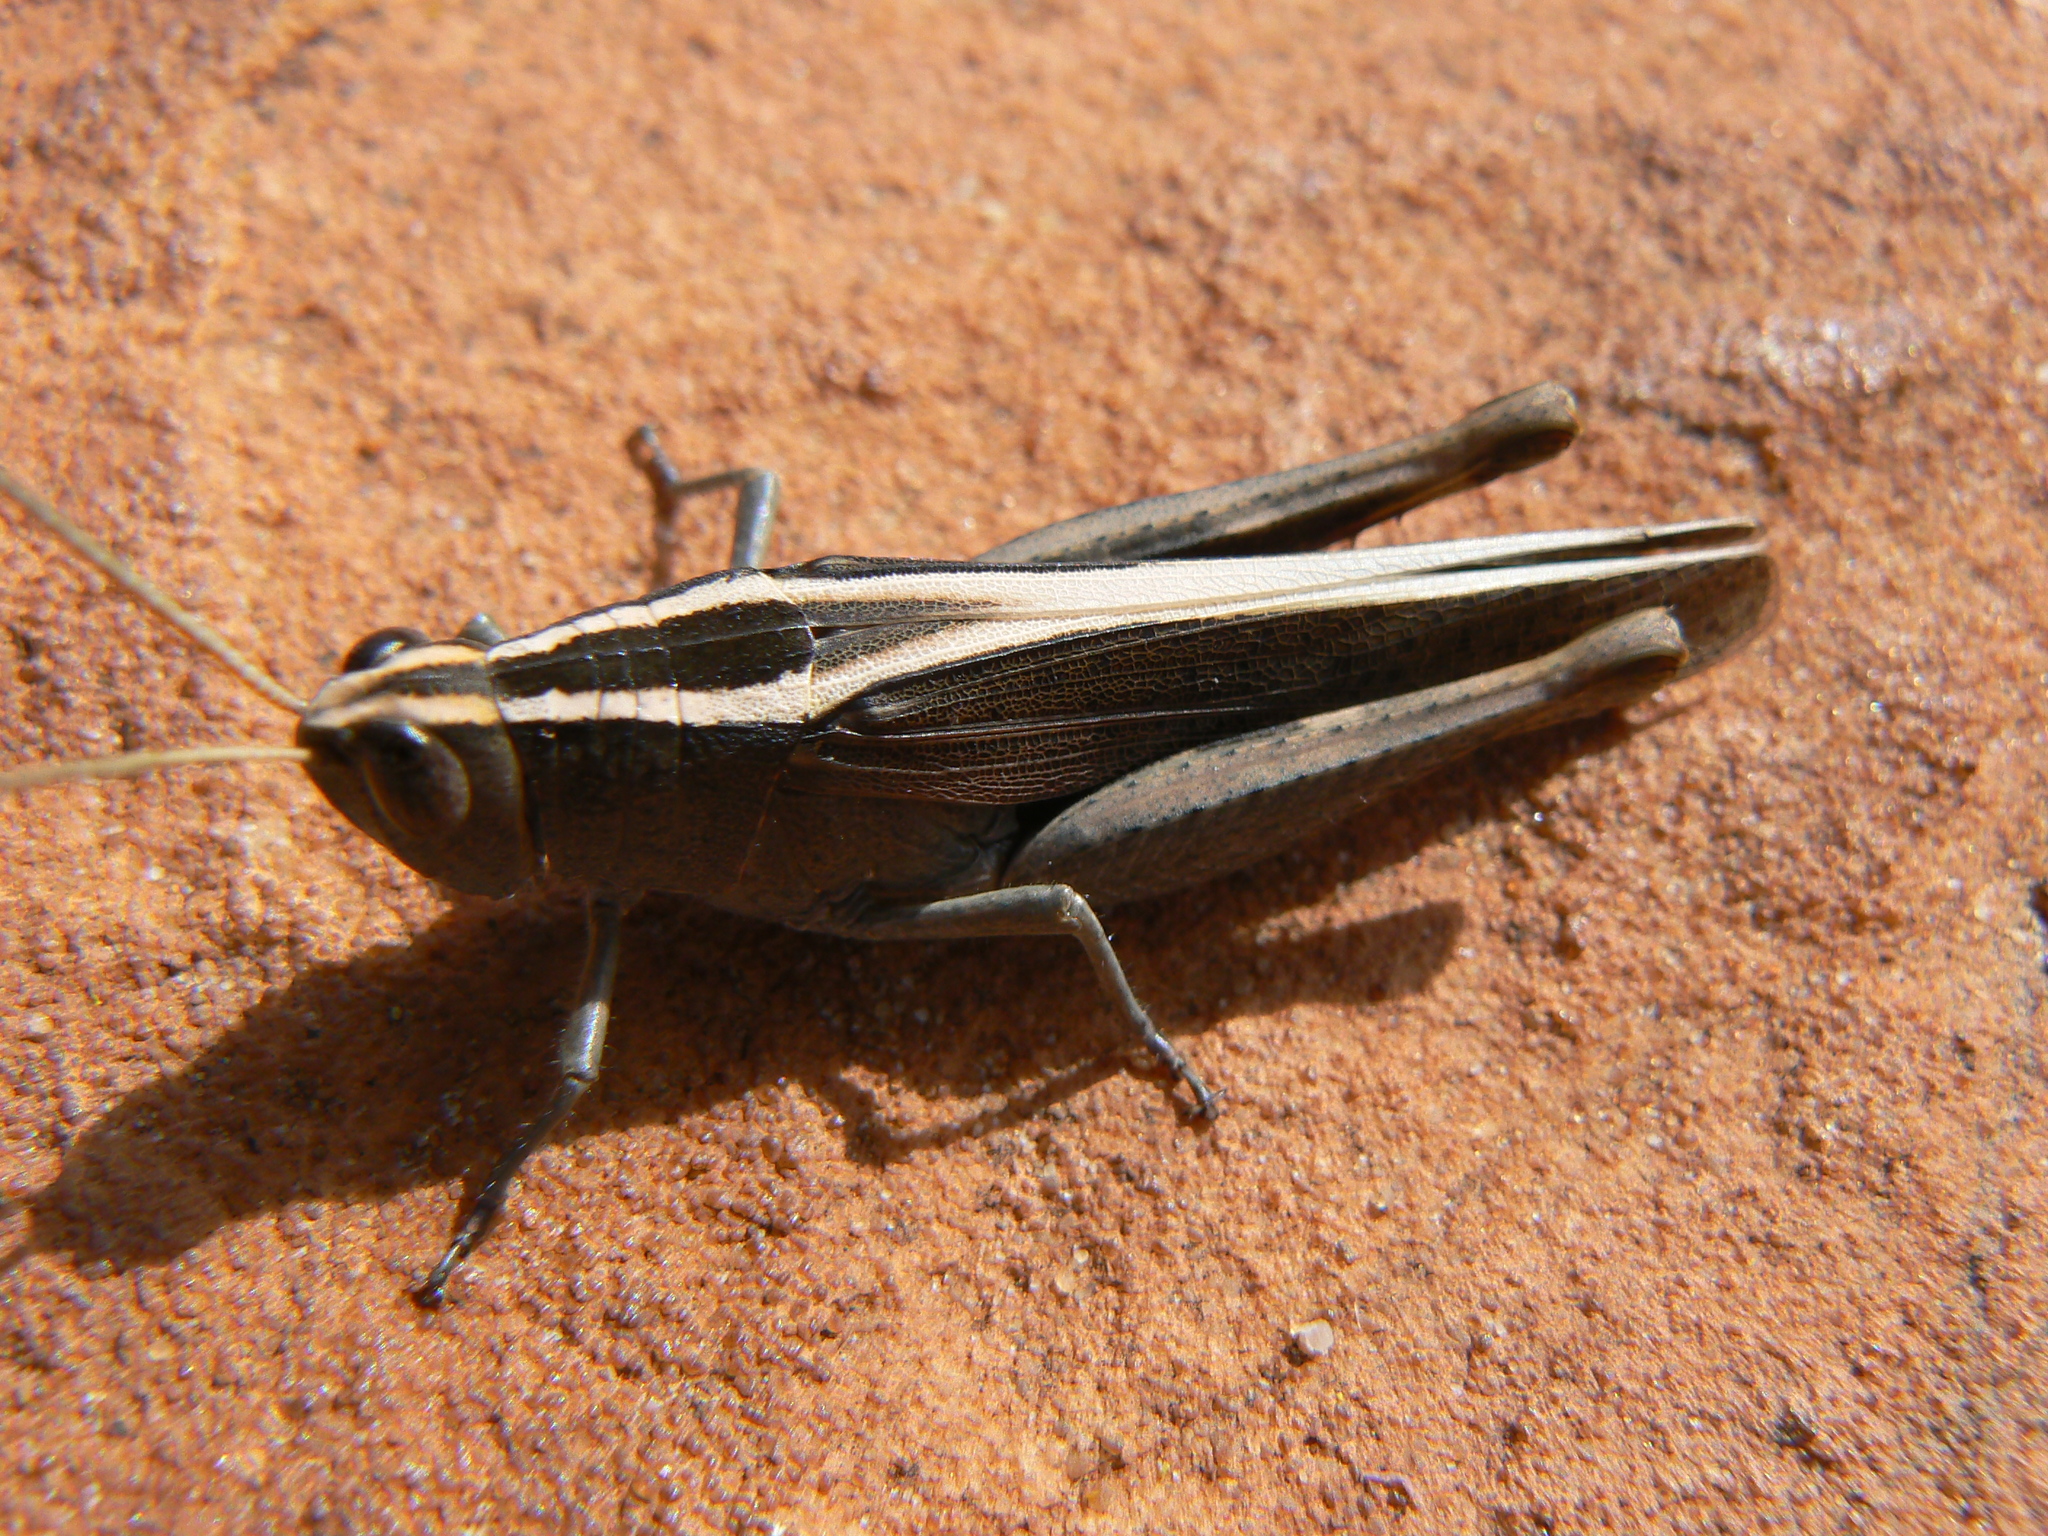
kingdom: Animalia
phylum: Arthropoda
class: Insecta
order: Orthoptera
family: Acrididae
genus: Apotropis
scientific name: Apotropis vittata
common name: Common striped grasshopper
